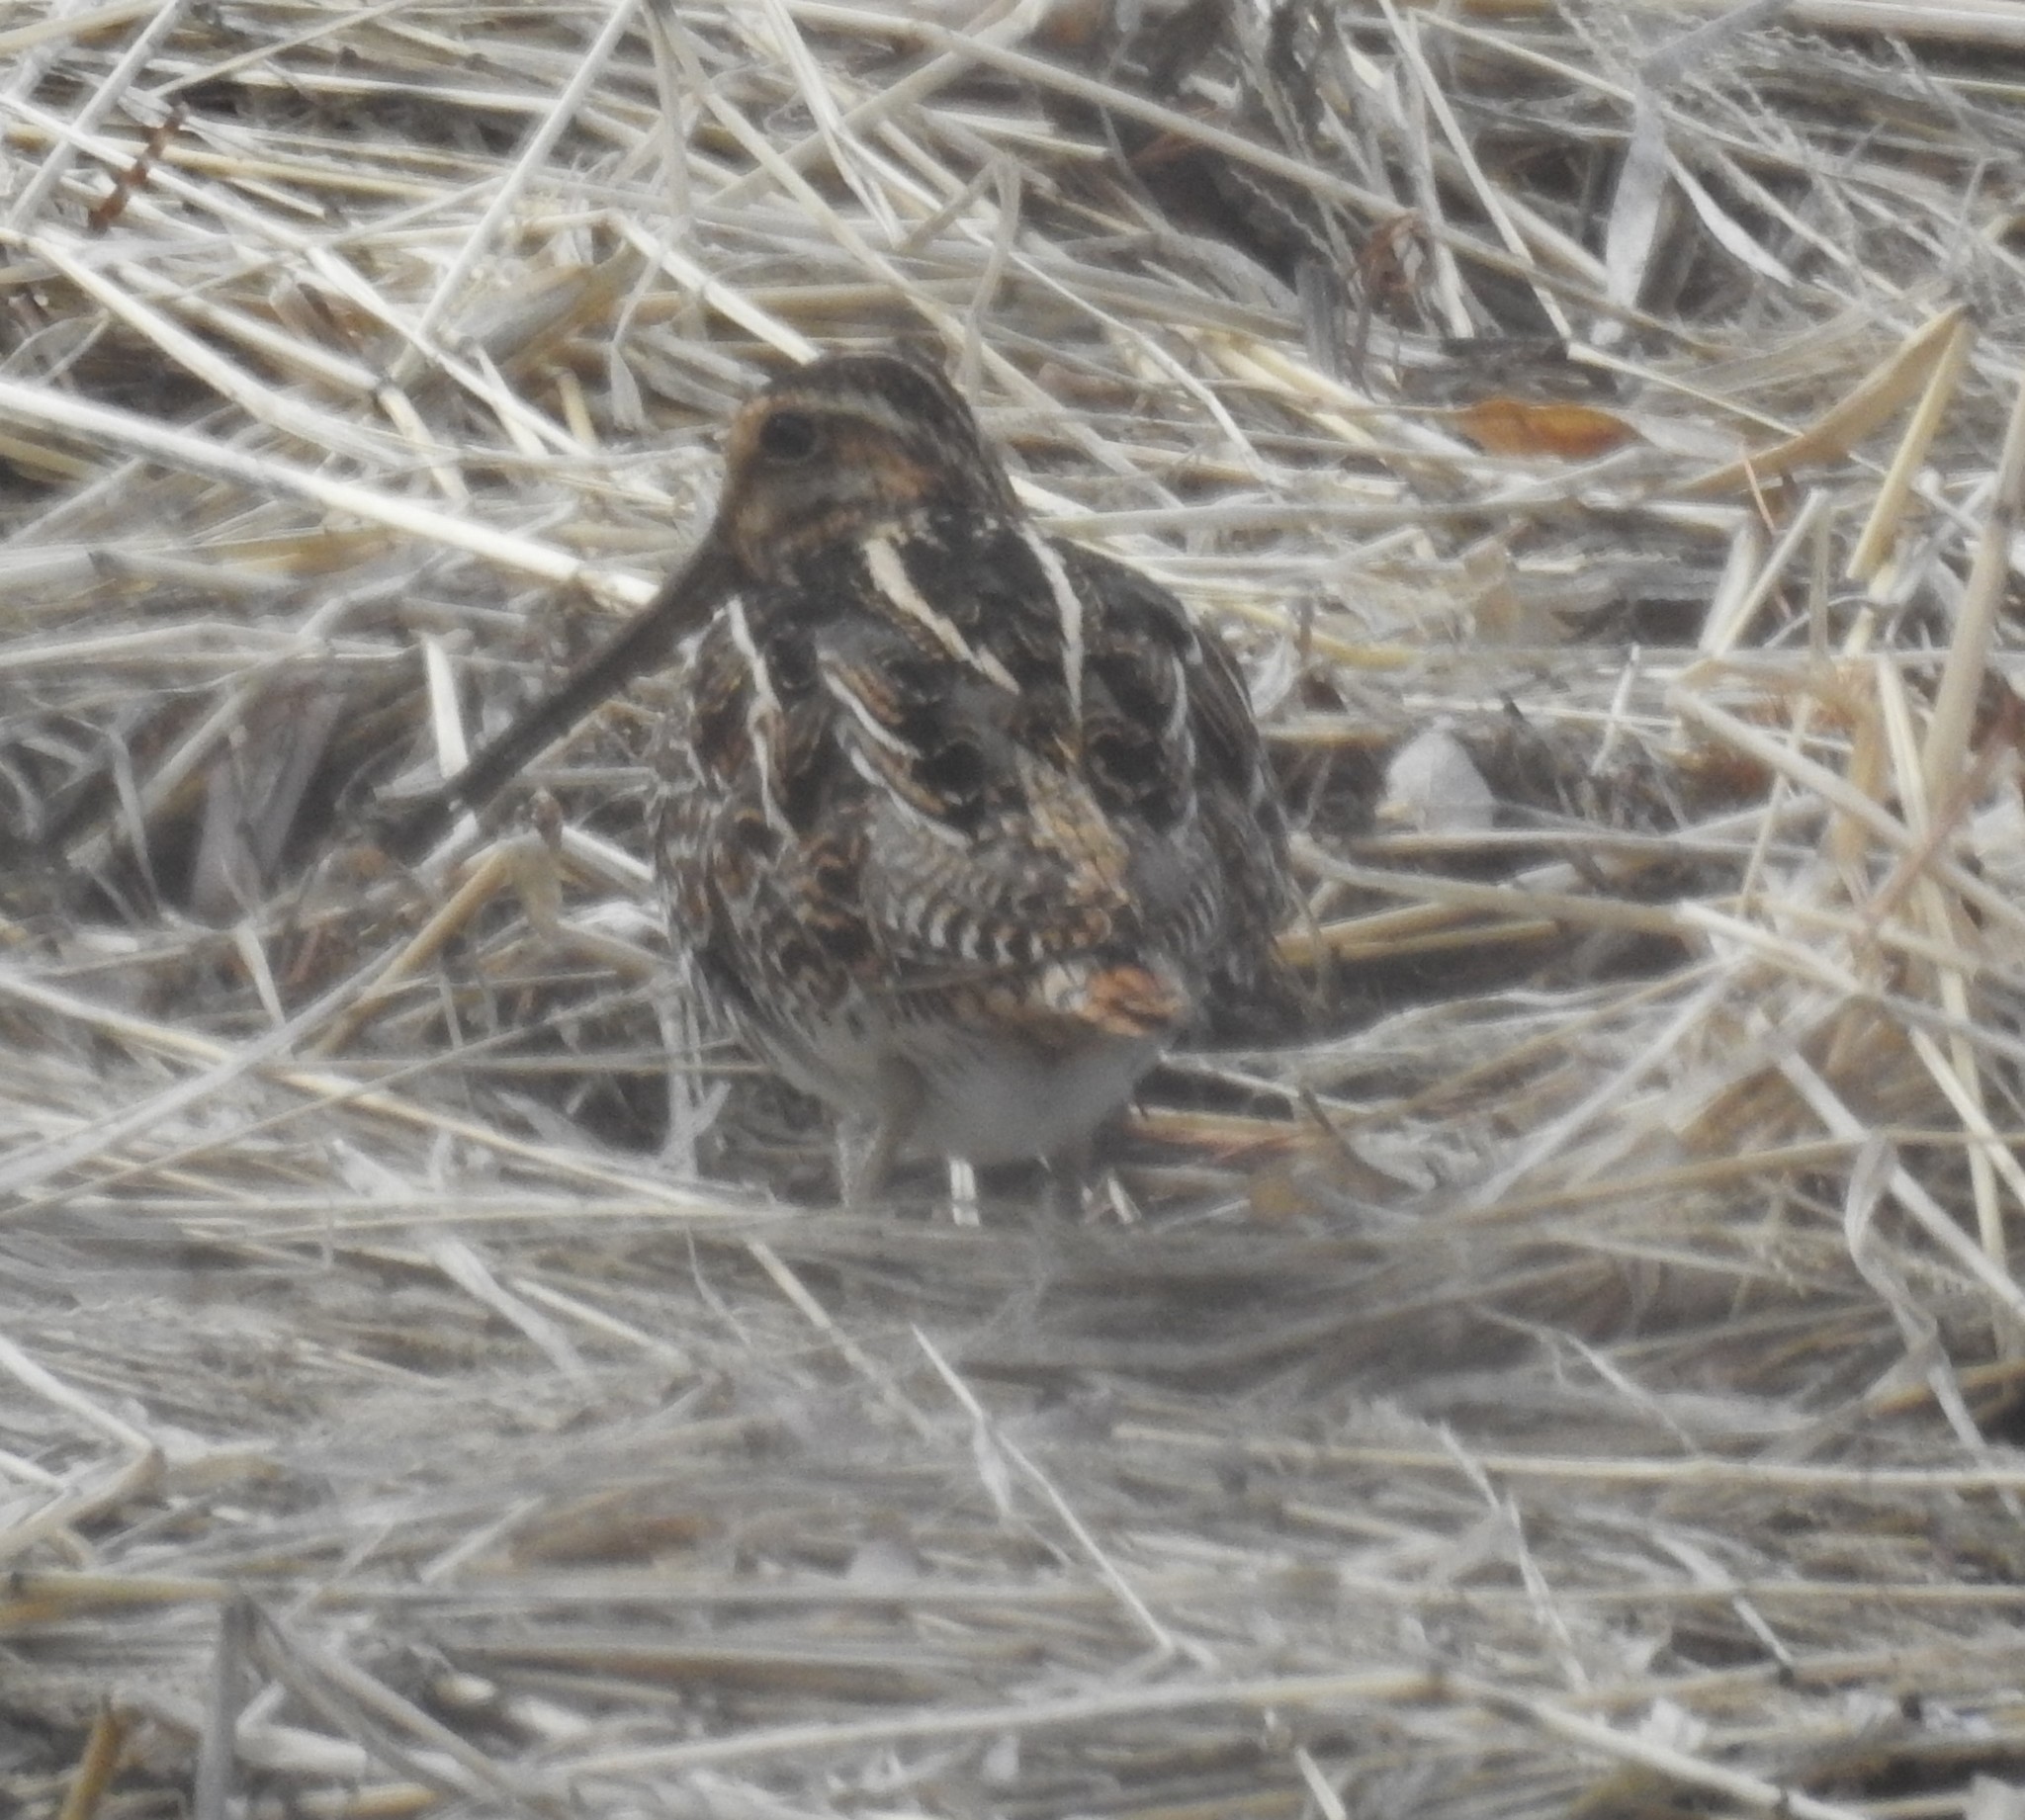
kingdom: Animalia
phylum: Chordata
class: Aves
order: Charadriiformes
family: Scolopacidae
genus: Gallinago
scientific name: Gallinago delicata
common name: Wilson's snipe
